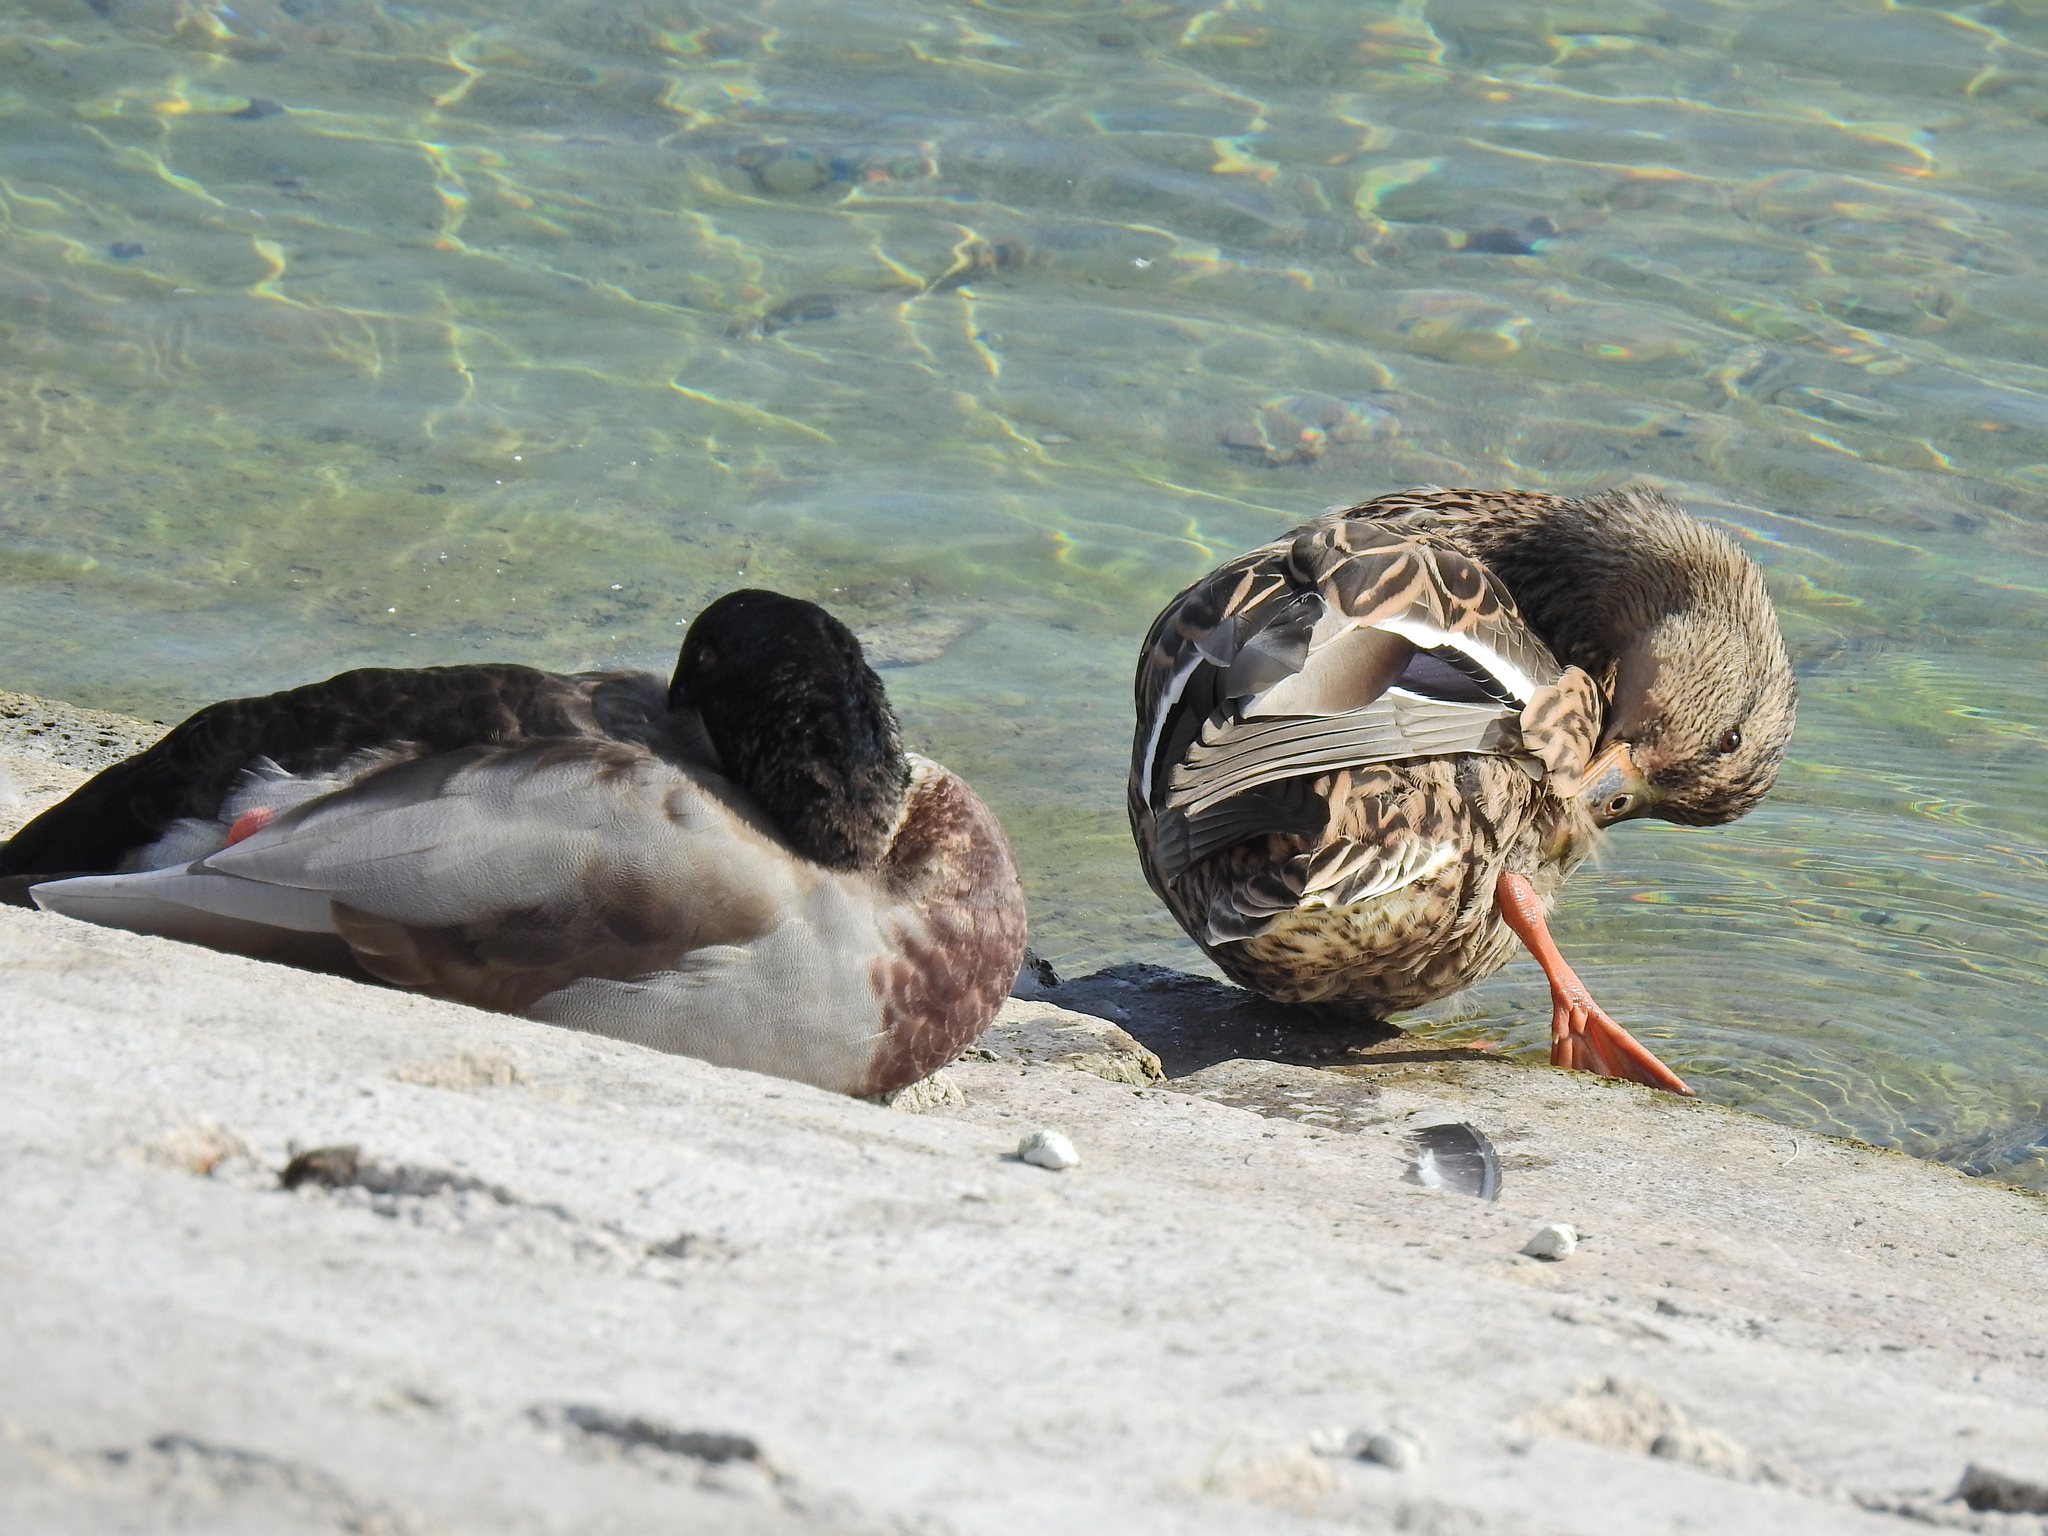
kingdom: Animalia
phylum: Chordata
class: Aves
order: Anseriformes
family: Anatidae
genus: Anas
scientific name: Anas platyrhynchos
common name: Mallard
